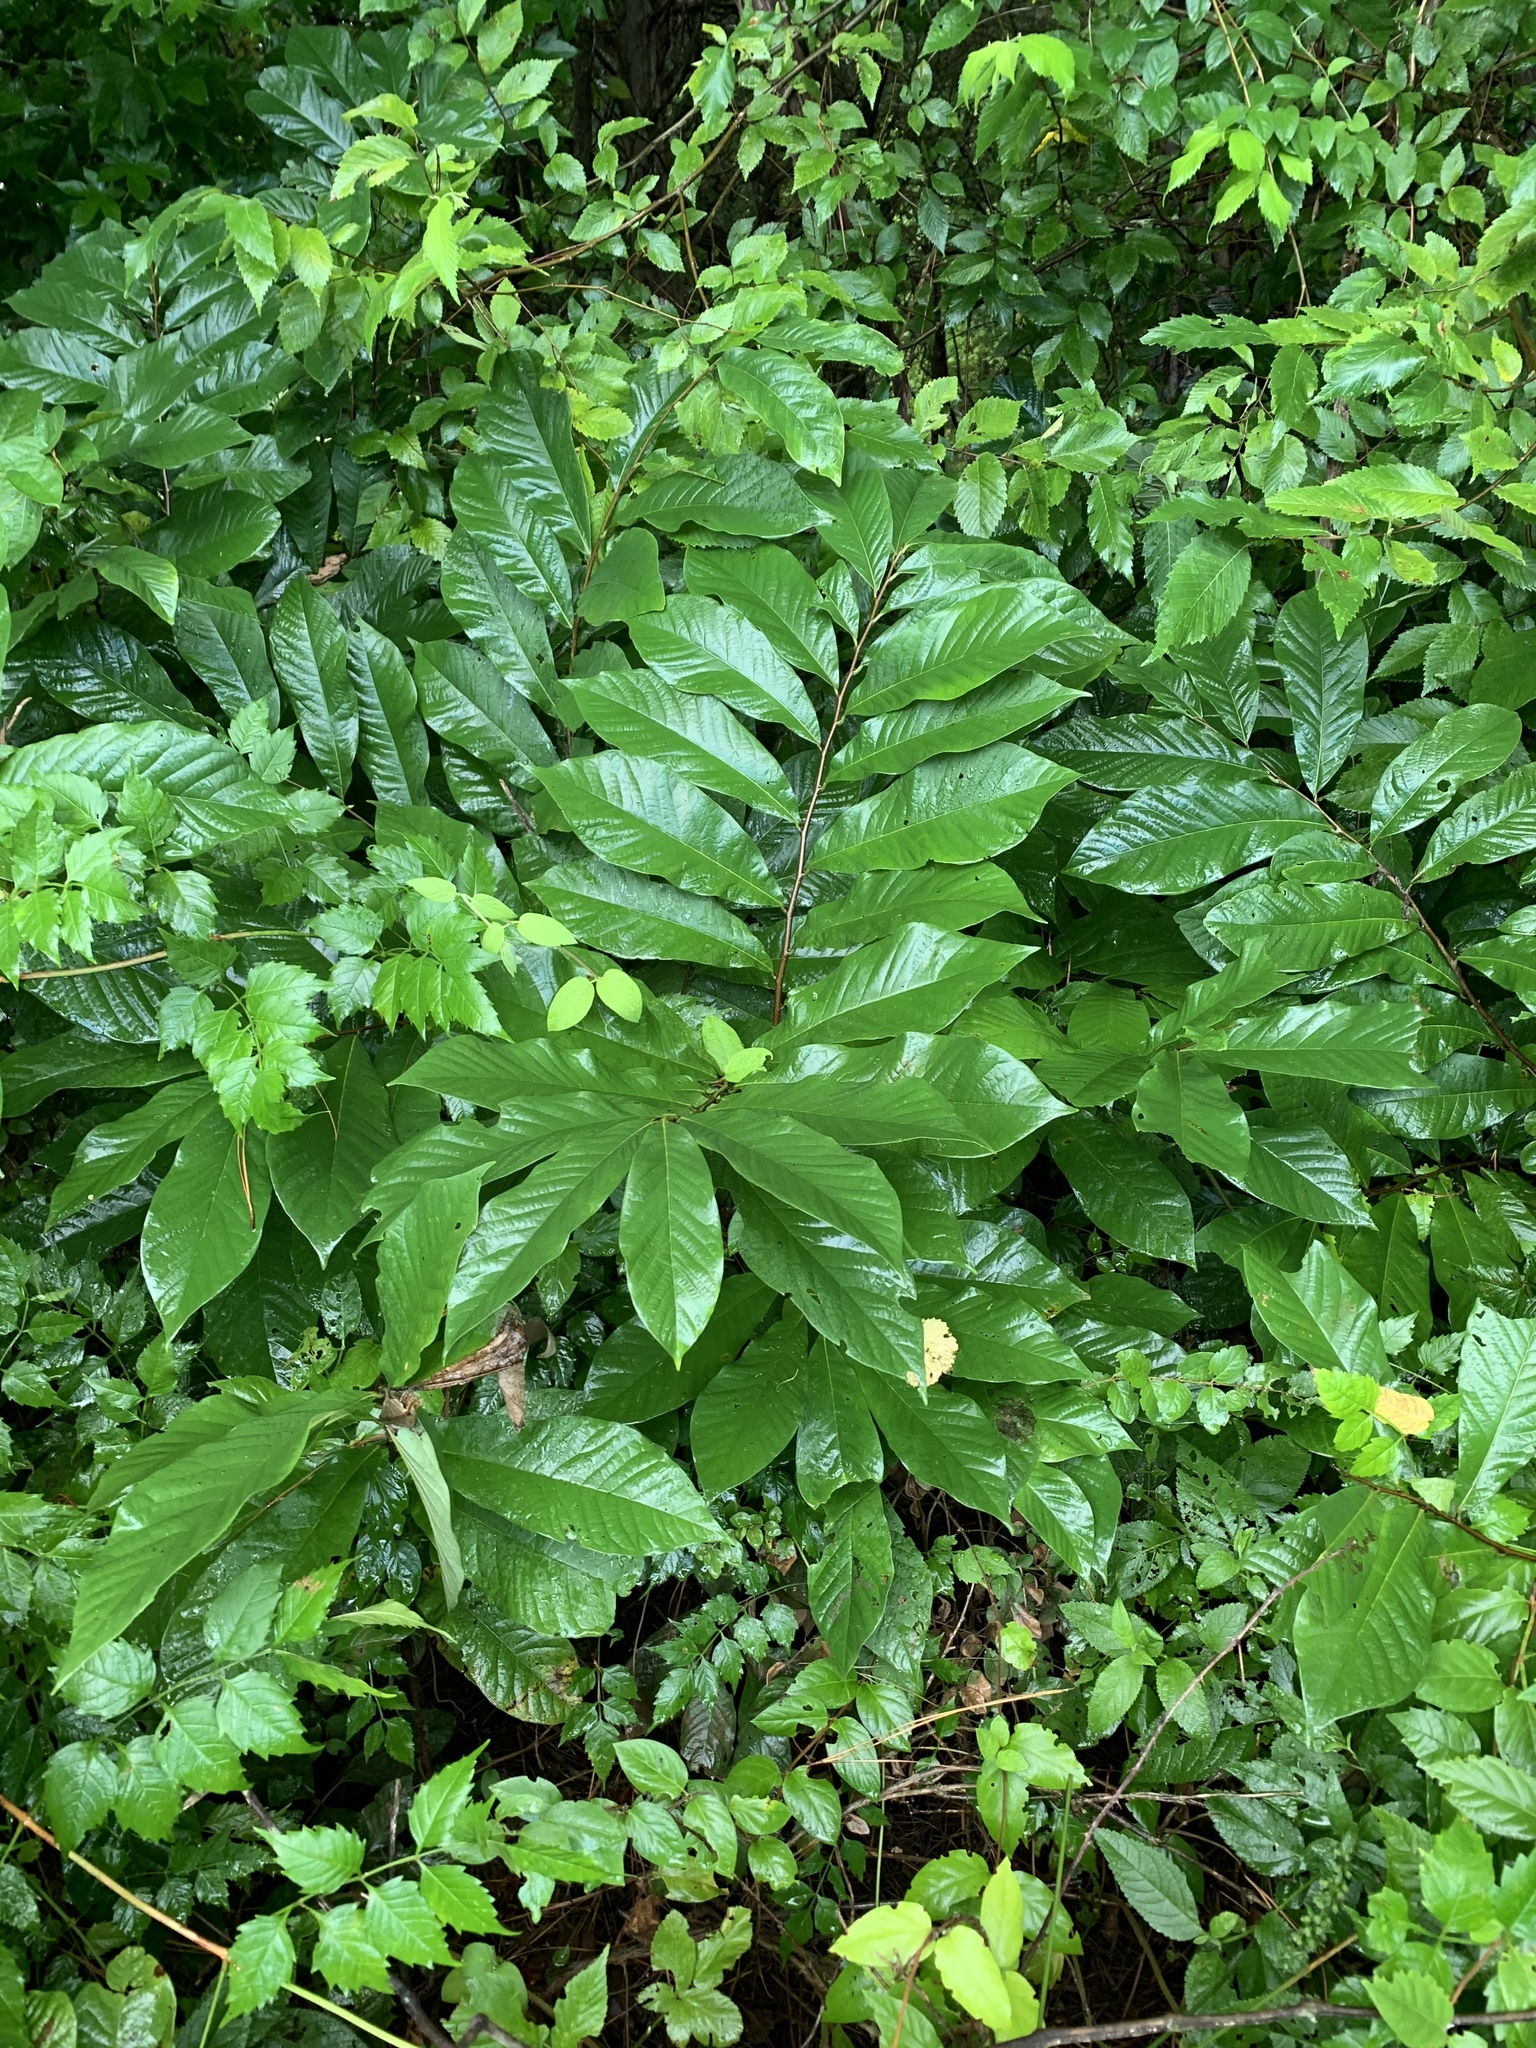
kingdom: Plantae
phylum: Tracheophyta
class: Magnoliopsida
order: Magnoliales
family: Annonaceae
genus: Asimina
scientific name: Asimina triloba
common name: Dog-banana
